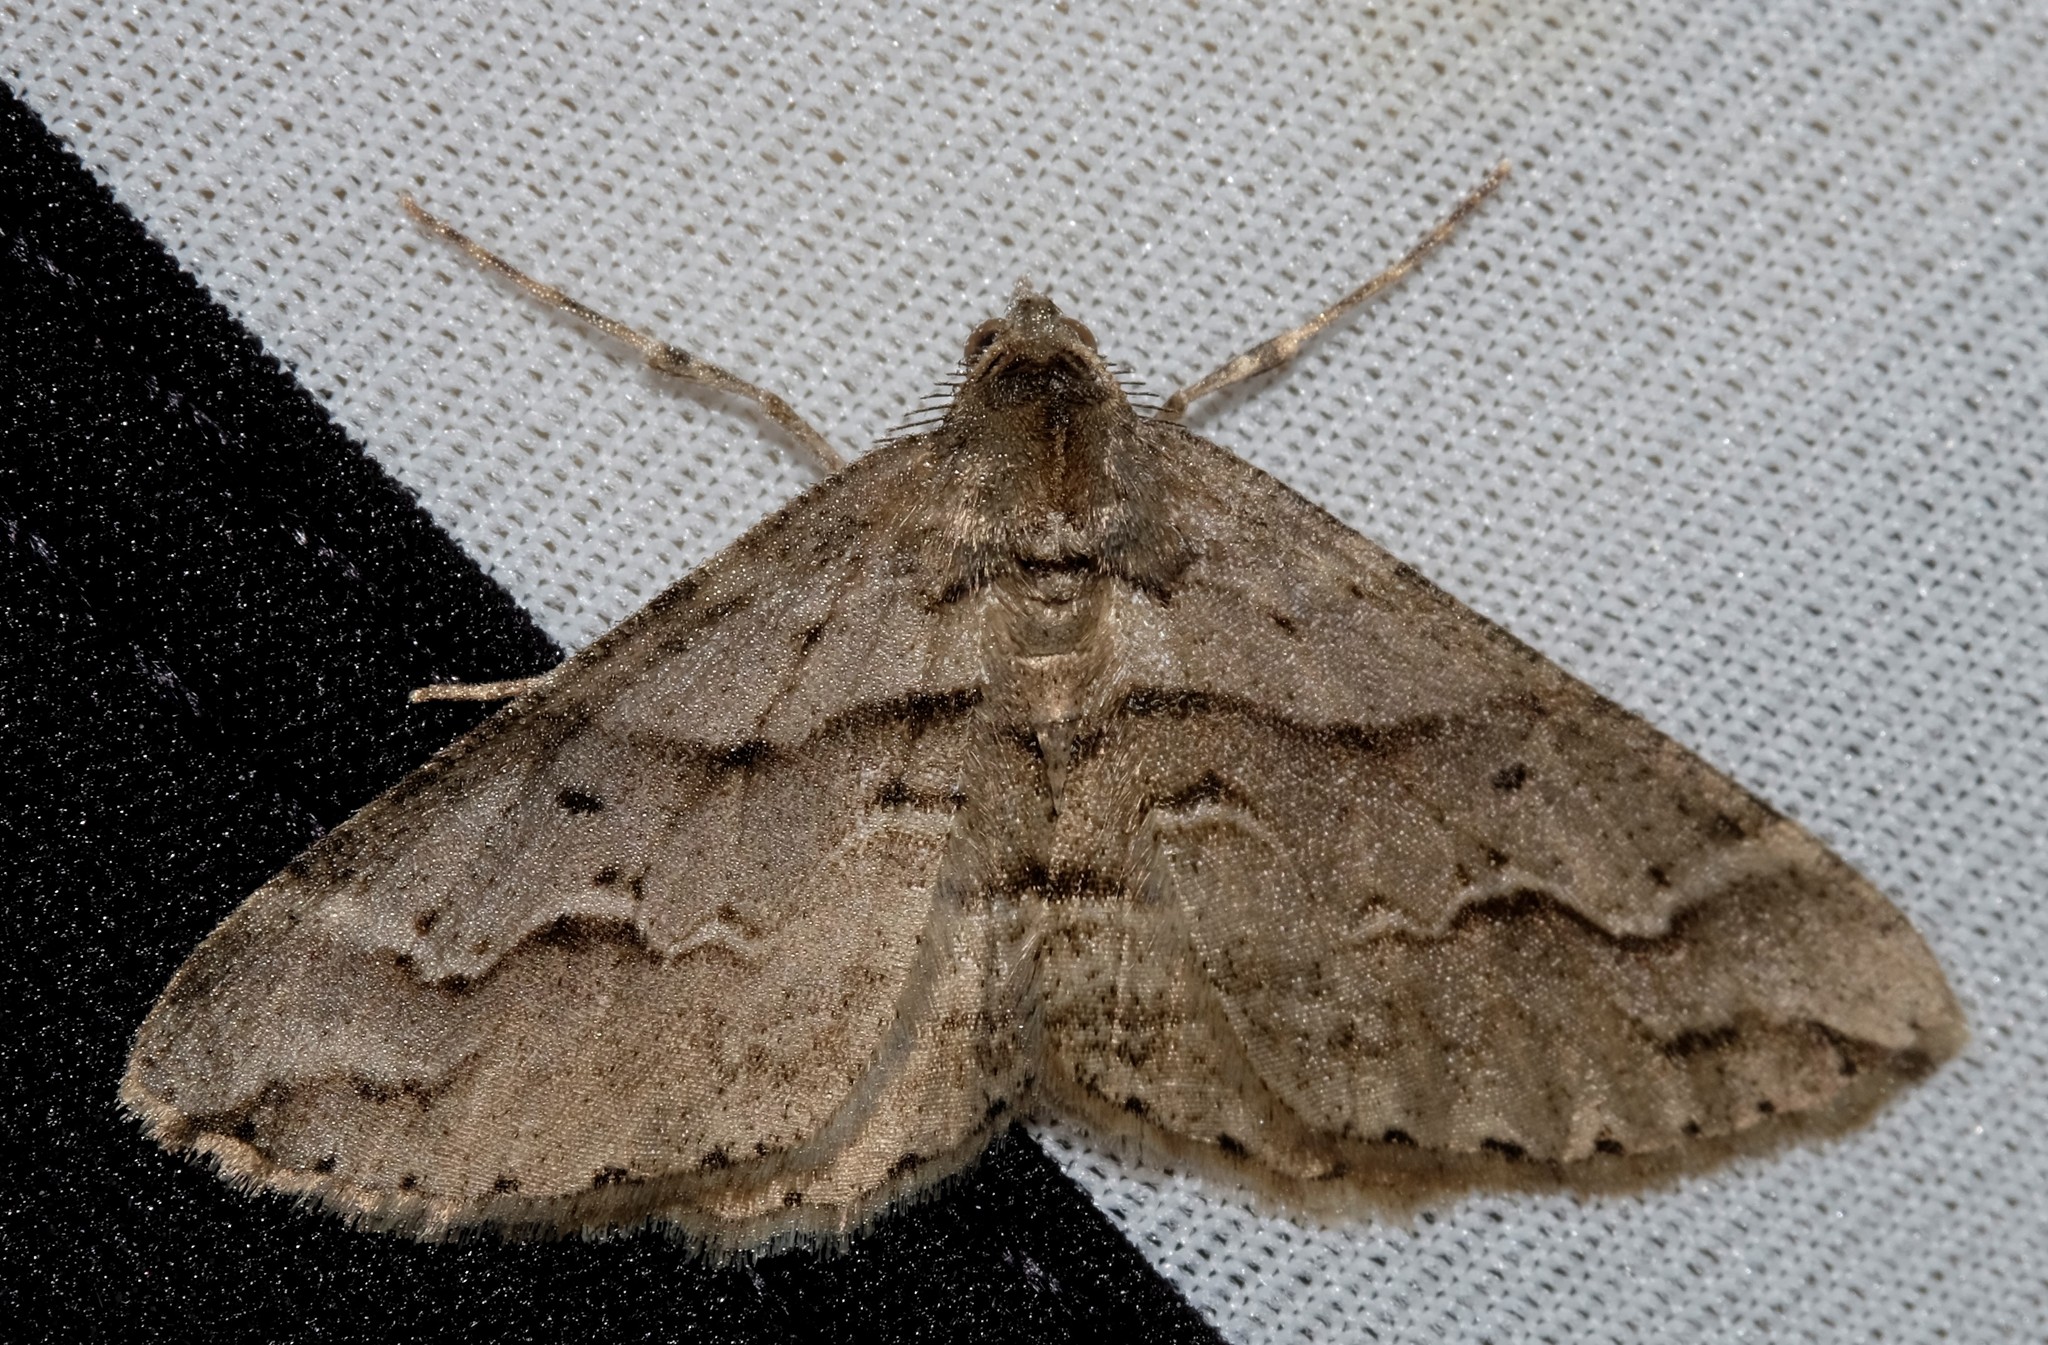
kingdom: Animalia
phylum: Arthropoda
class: Insecta
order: Lepidoptera
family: Geometridae
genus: Syneora
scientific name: Syneora fractata
